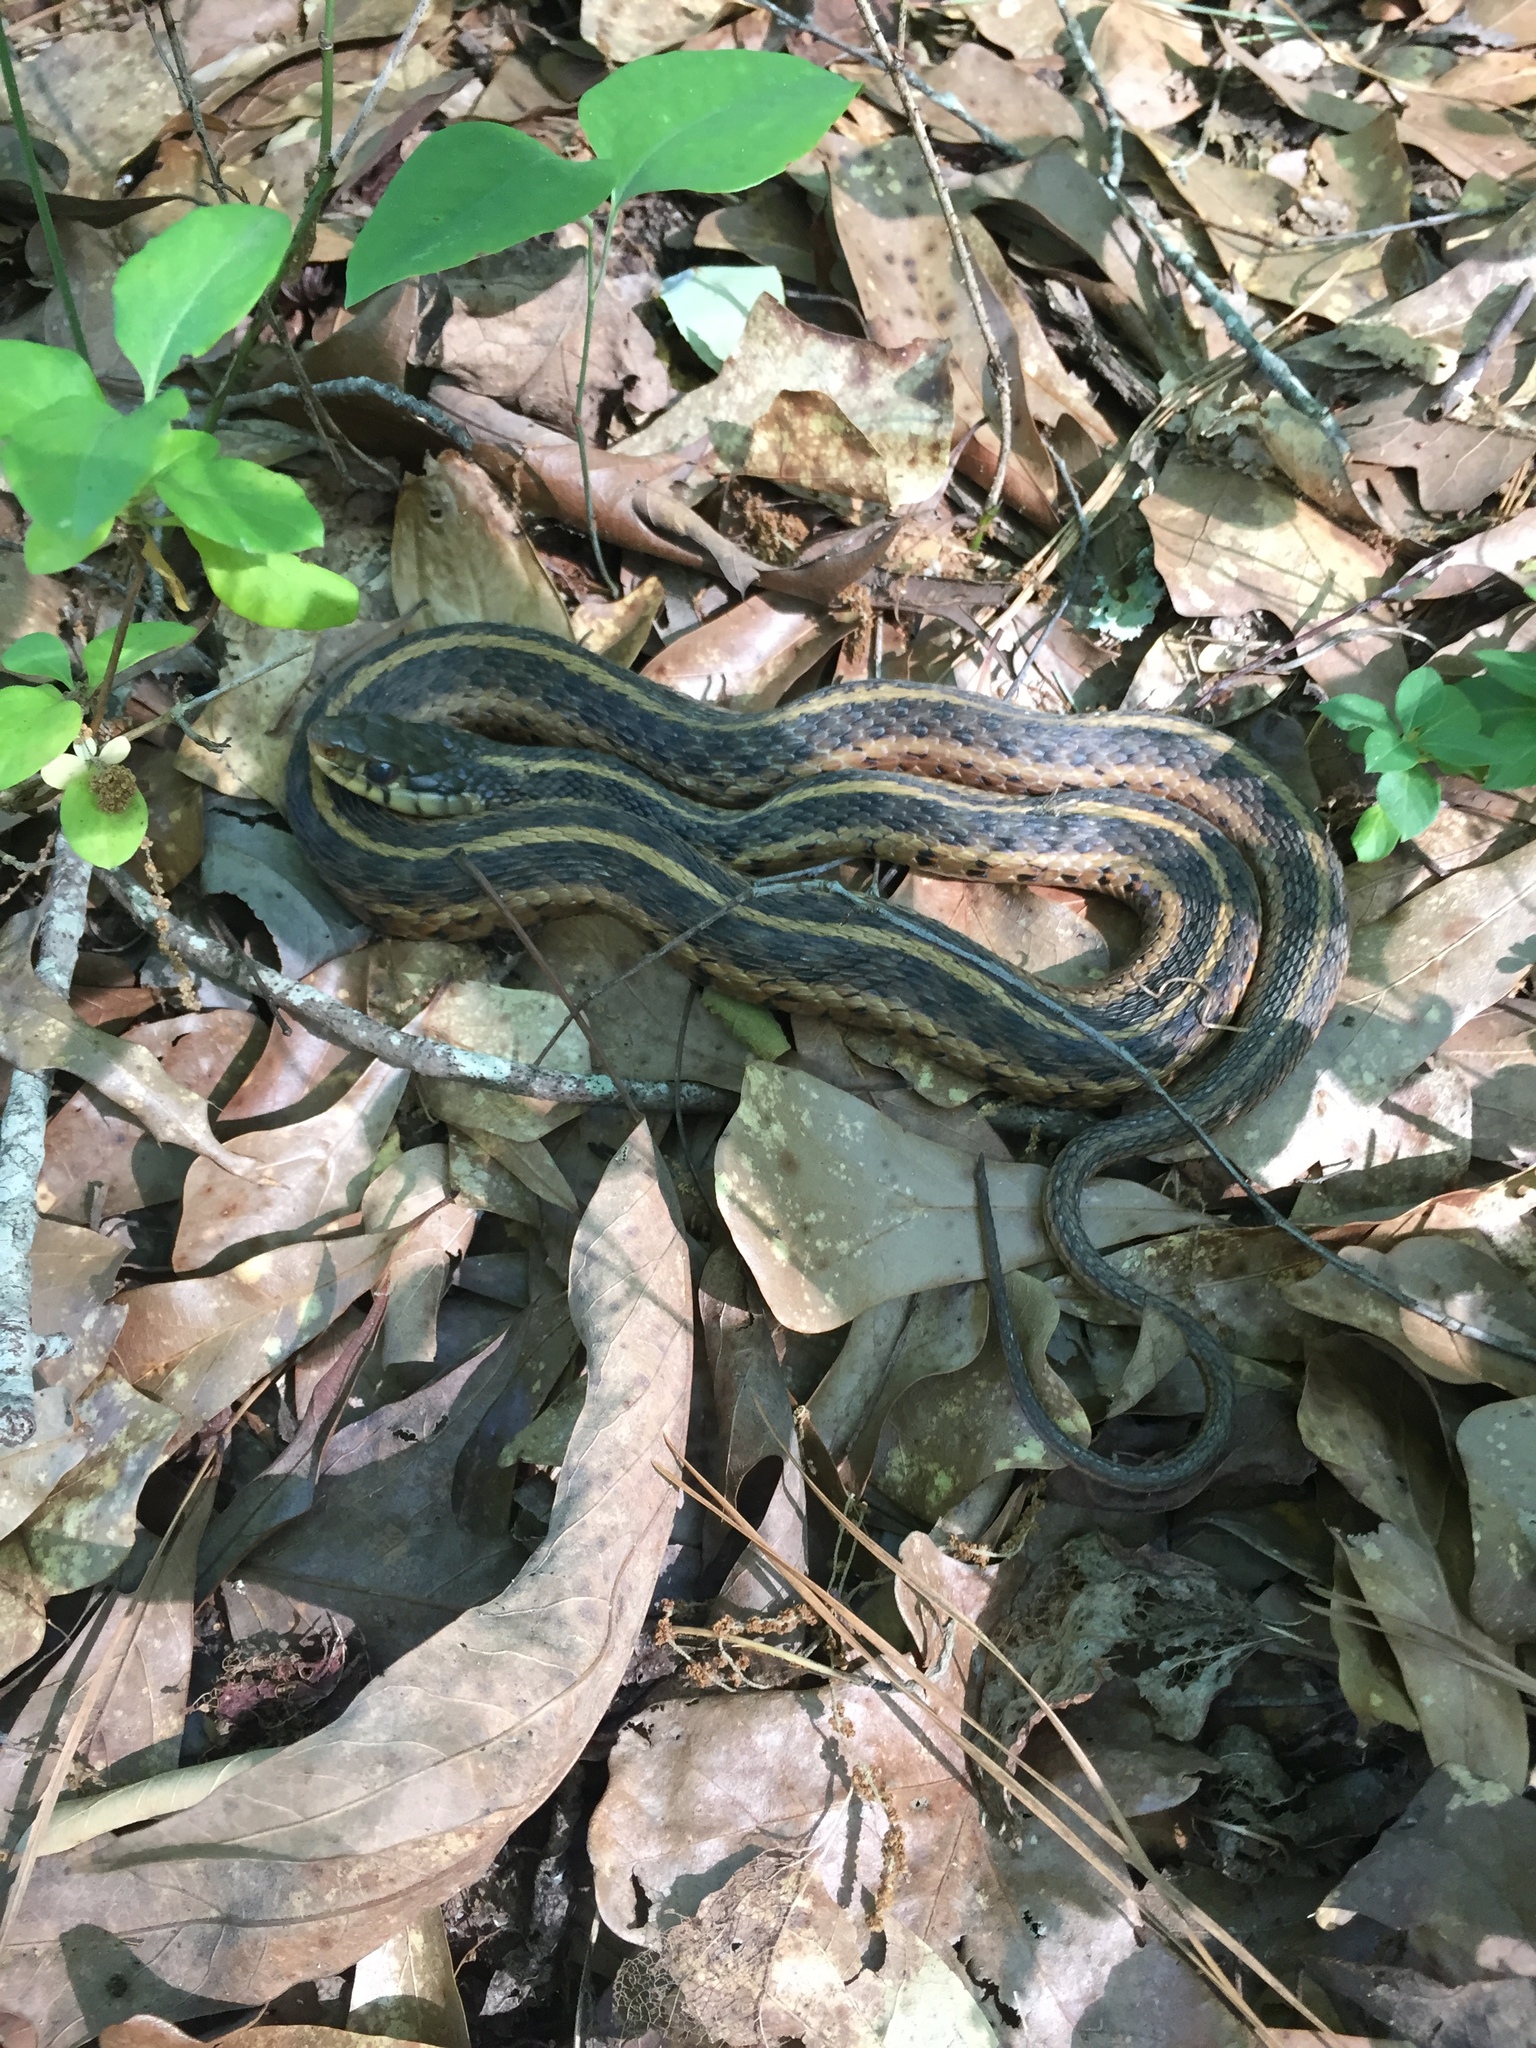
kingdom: Animalia
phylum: Chordata
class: Squamata
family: Colubridae
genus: Thamnophis
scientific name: Thamnophis sirtalis
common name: Common garter snake
